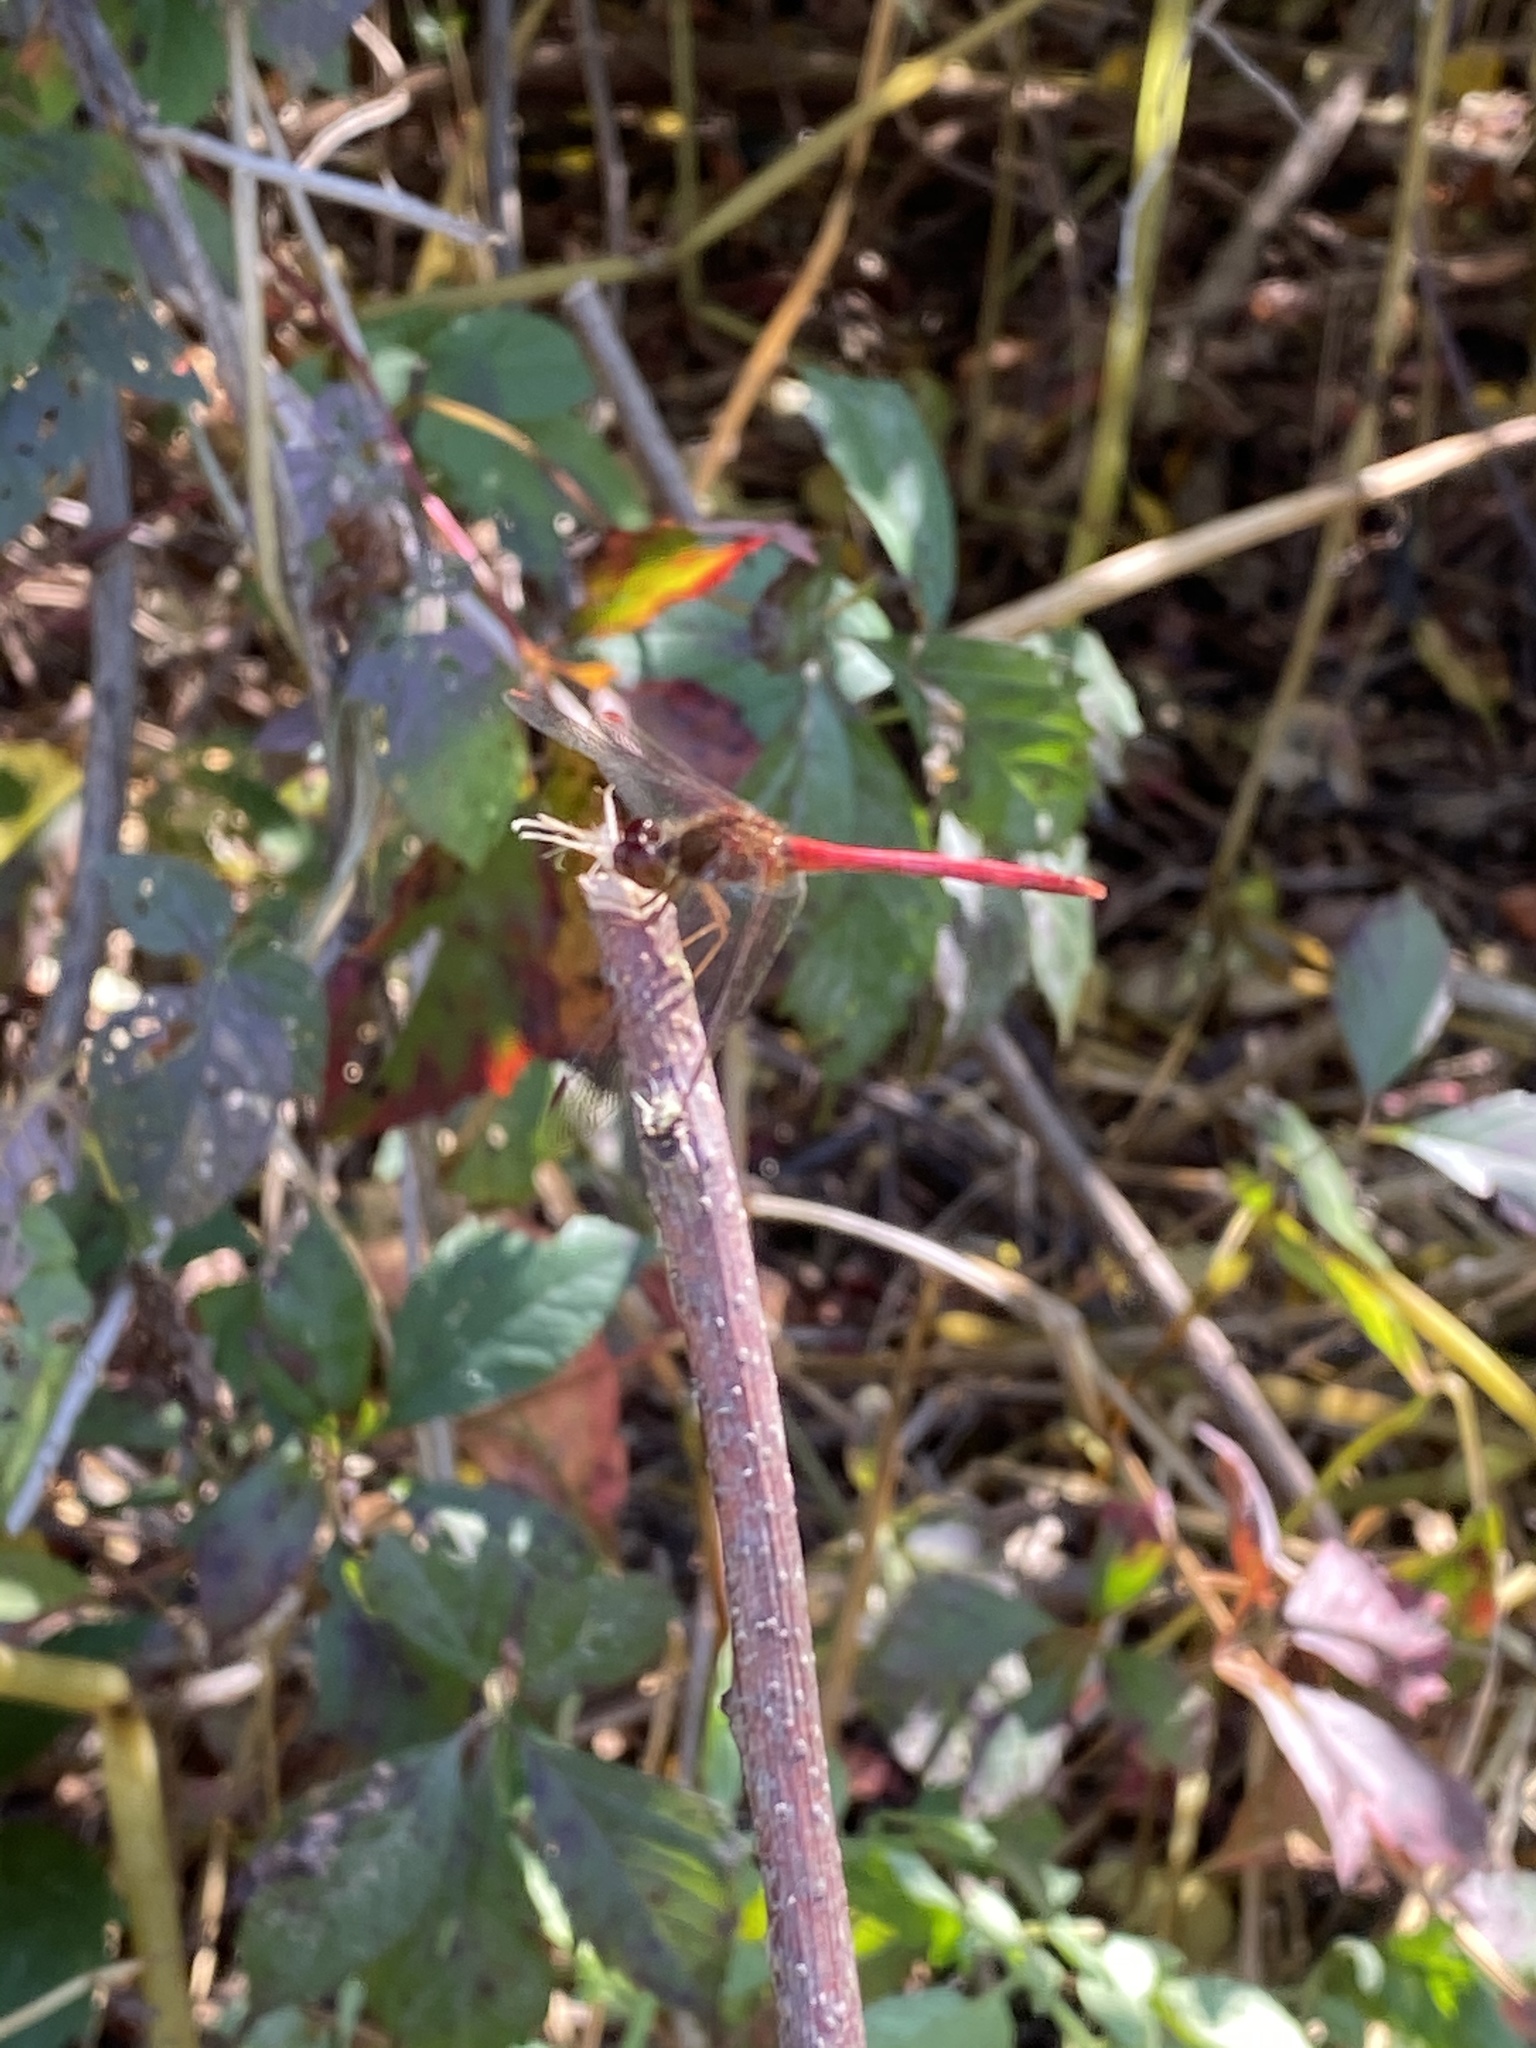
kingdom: Animalia
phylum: Arthropoda
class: Insecta
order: Odonata
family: Libellulidae
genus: Sympetrum
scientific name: Sympetrum vicinum
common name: Autumn meadowhawk
